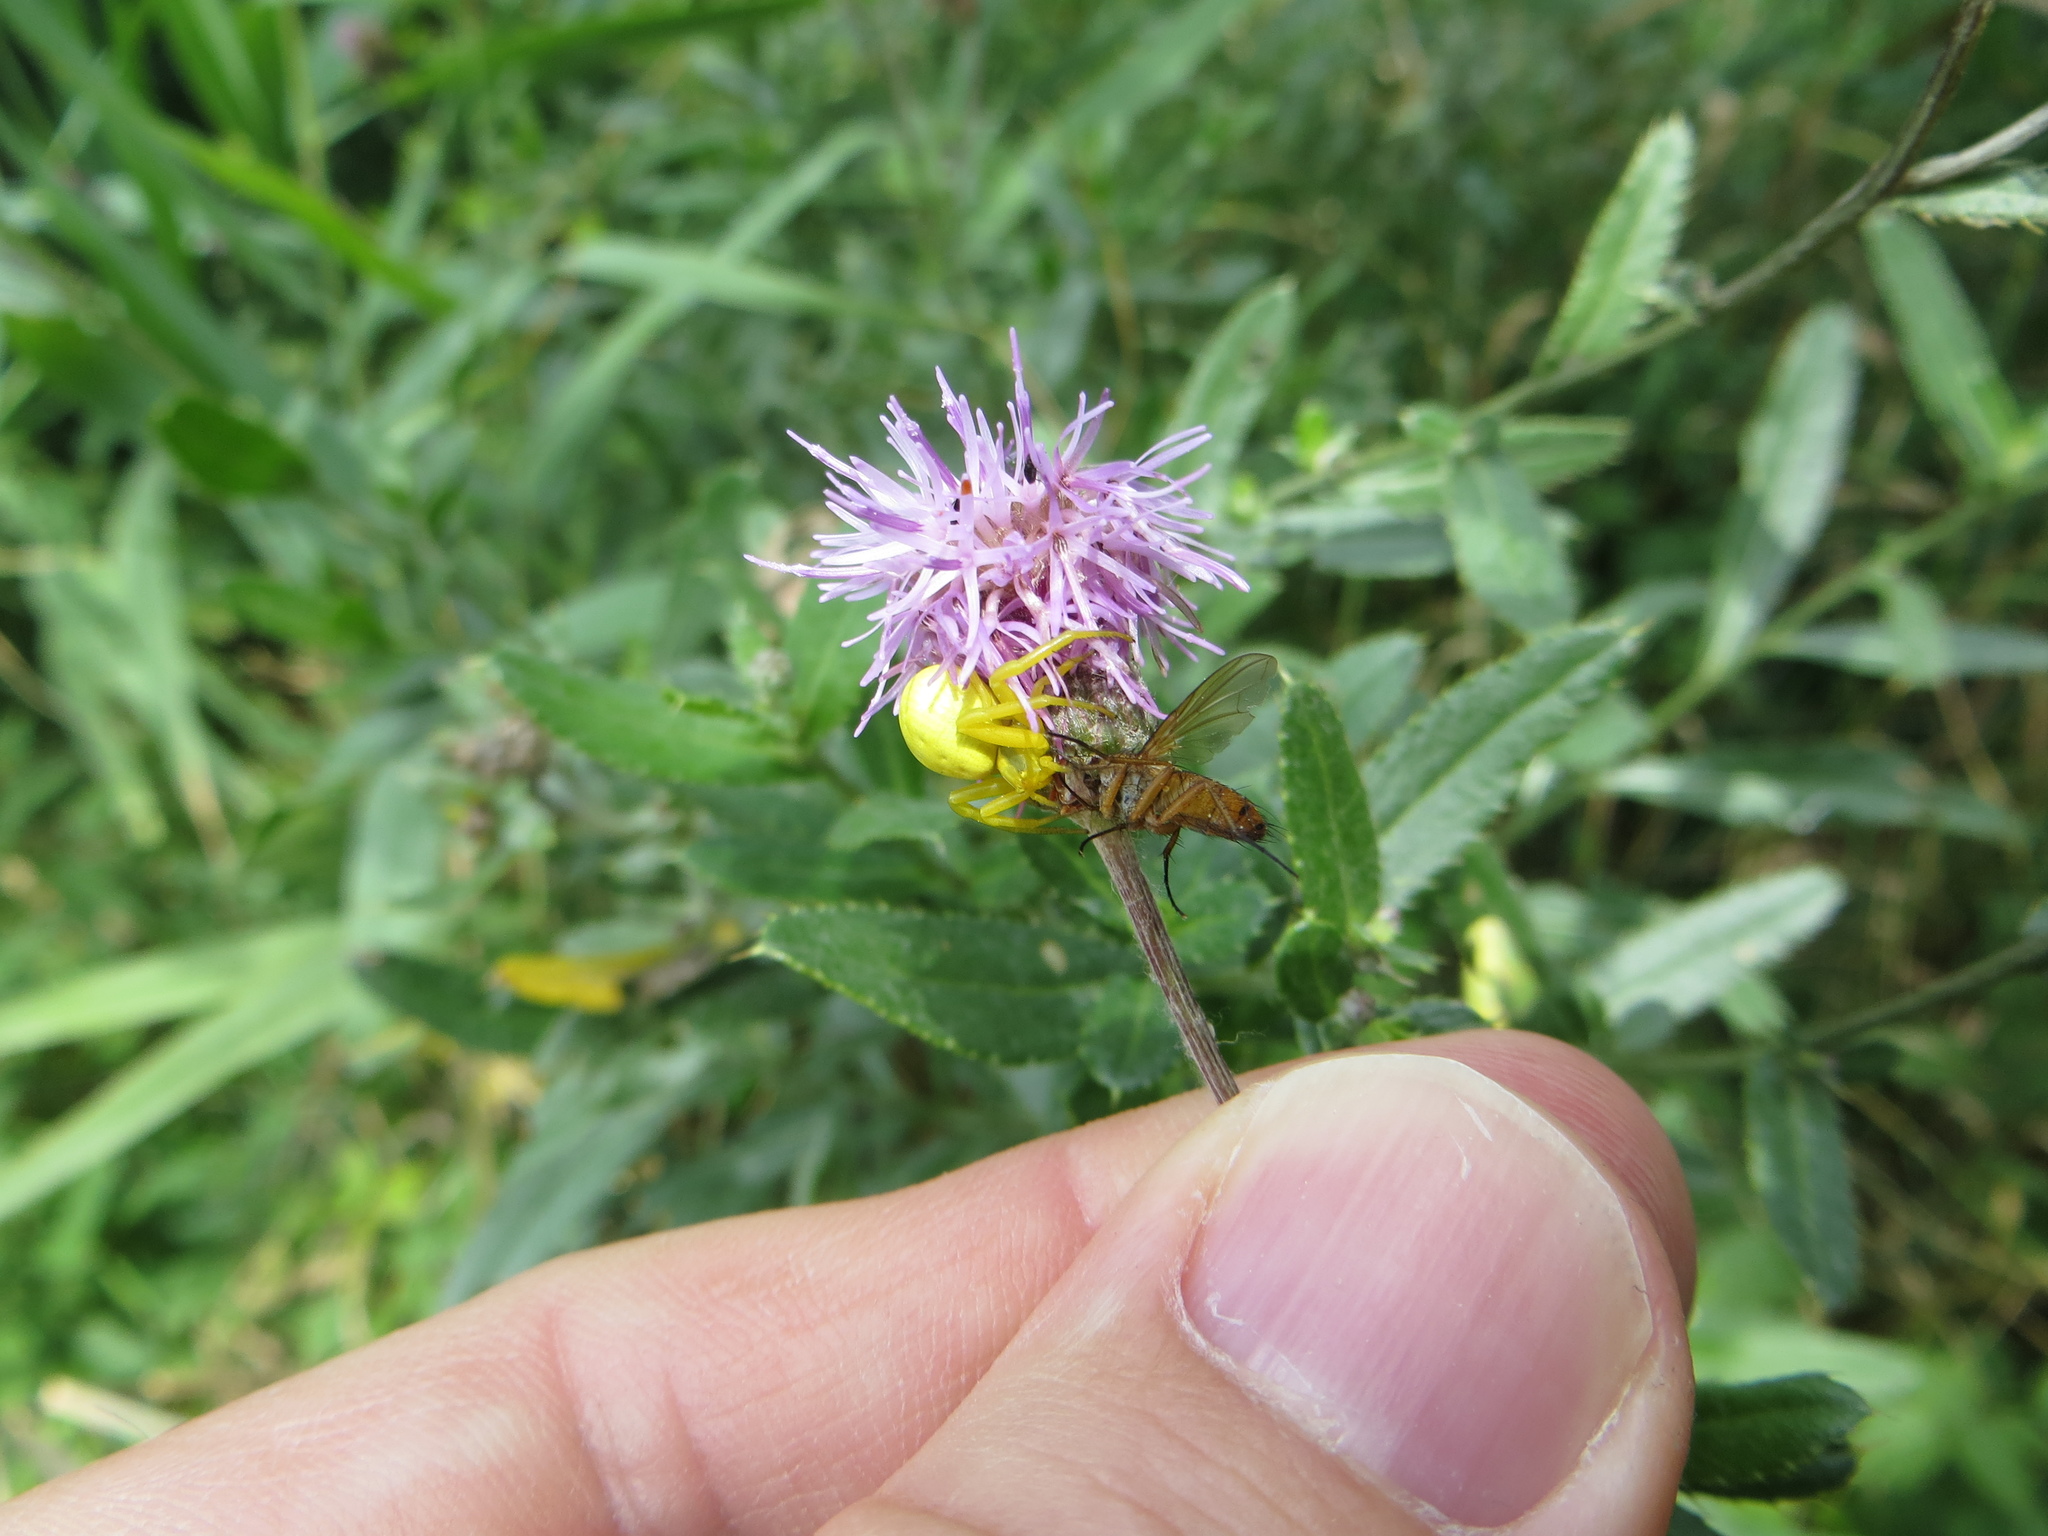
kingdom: Animalia
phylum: Arthropoda
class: Insecta
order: Diptera
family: Tachinidae
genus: Leskia
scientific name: Leskia aurea
